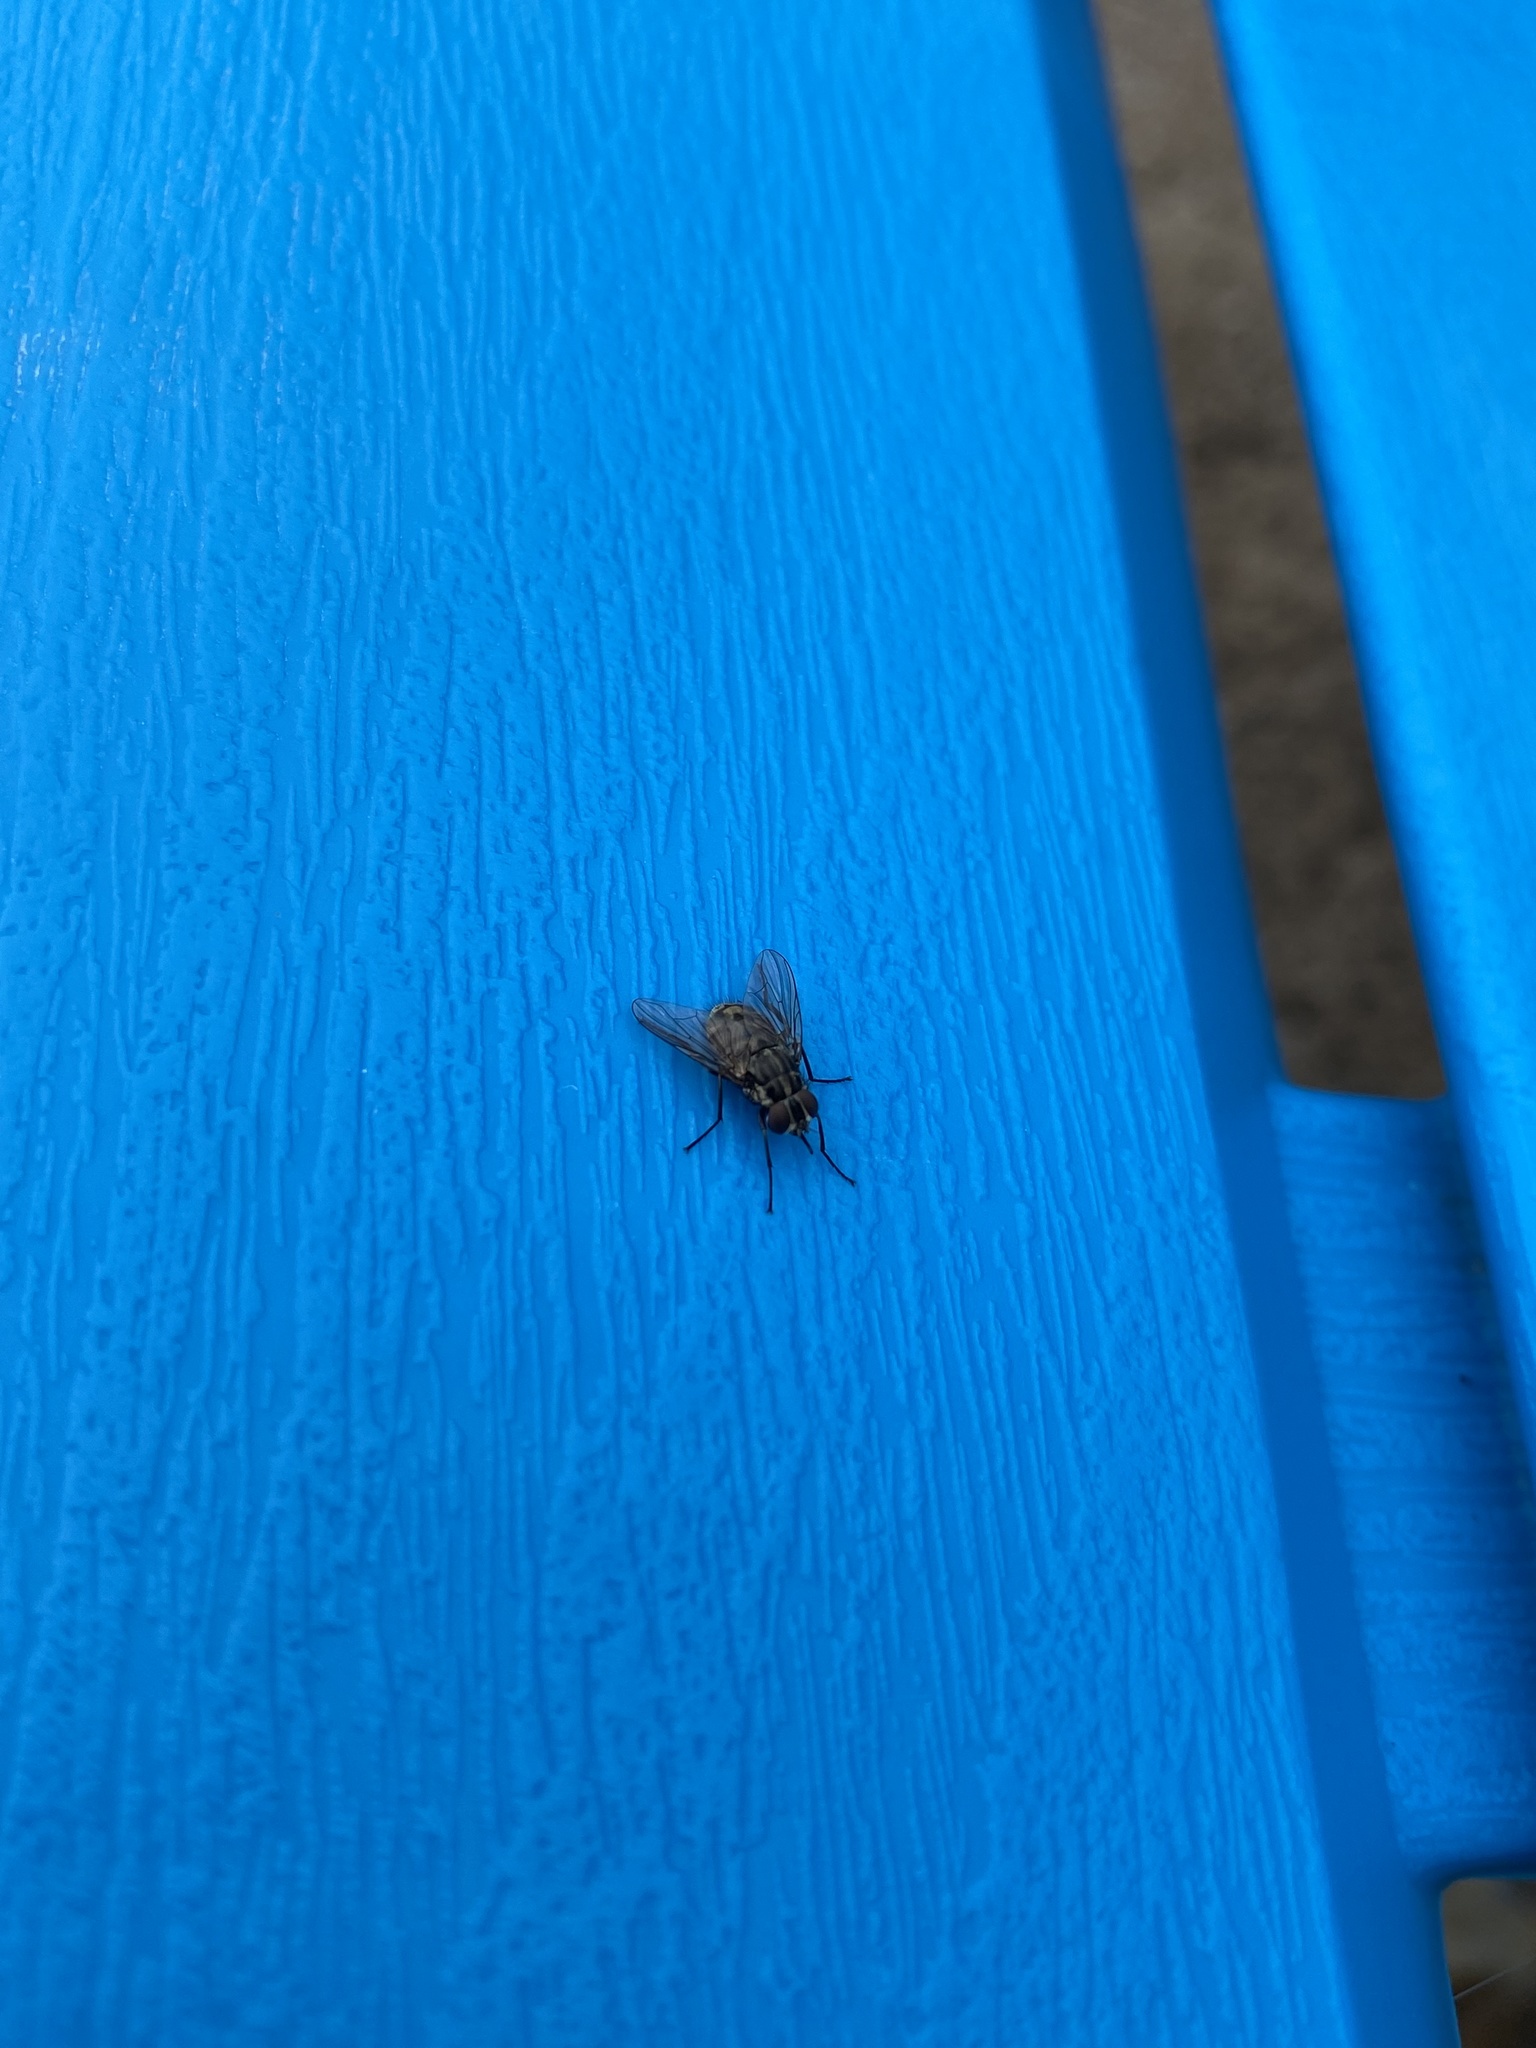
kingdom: Animalia
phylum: Arthropoda
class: Insecta
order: Diptera
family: Muscidae
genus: Stomoxys
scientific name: Stomoxys calcitrans
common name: Stable fly
